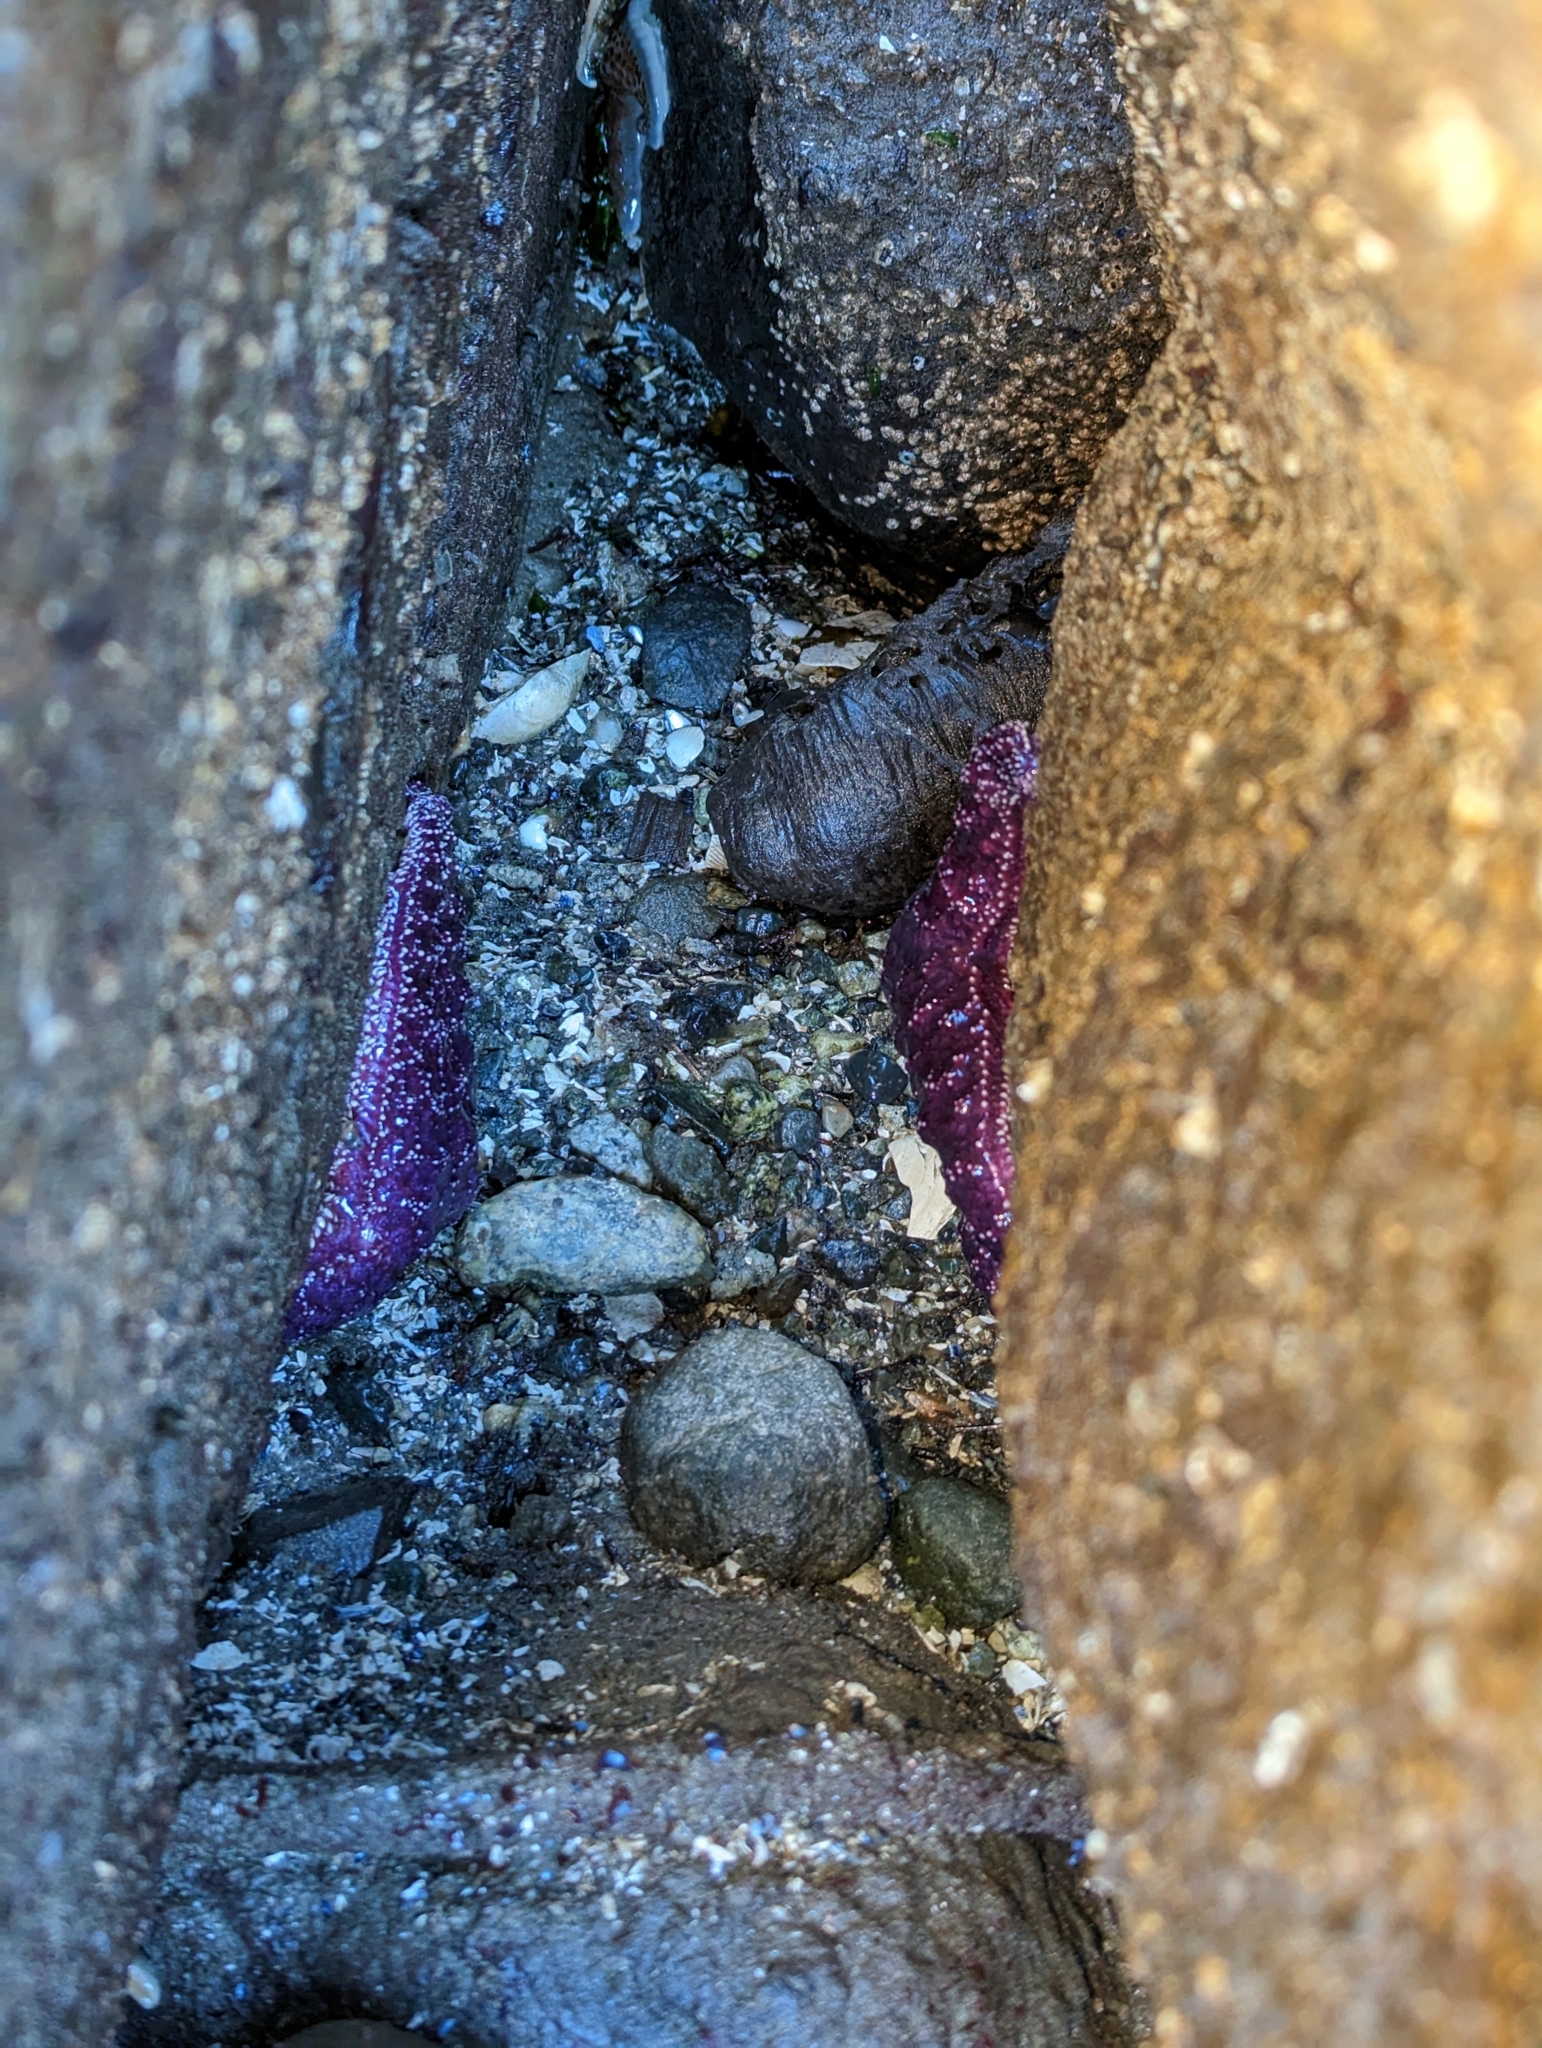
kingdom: Animalia
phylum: Echinodermata
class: Asteroidea
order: Forcipulatida
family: Asteriidae
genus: Pisaster
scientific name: Pisaster ochraceus
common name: Ochre stars
